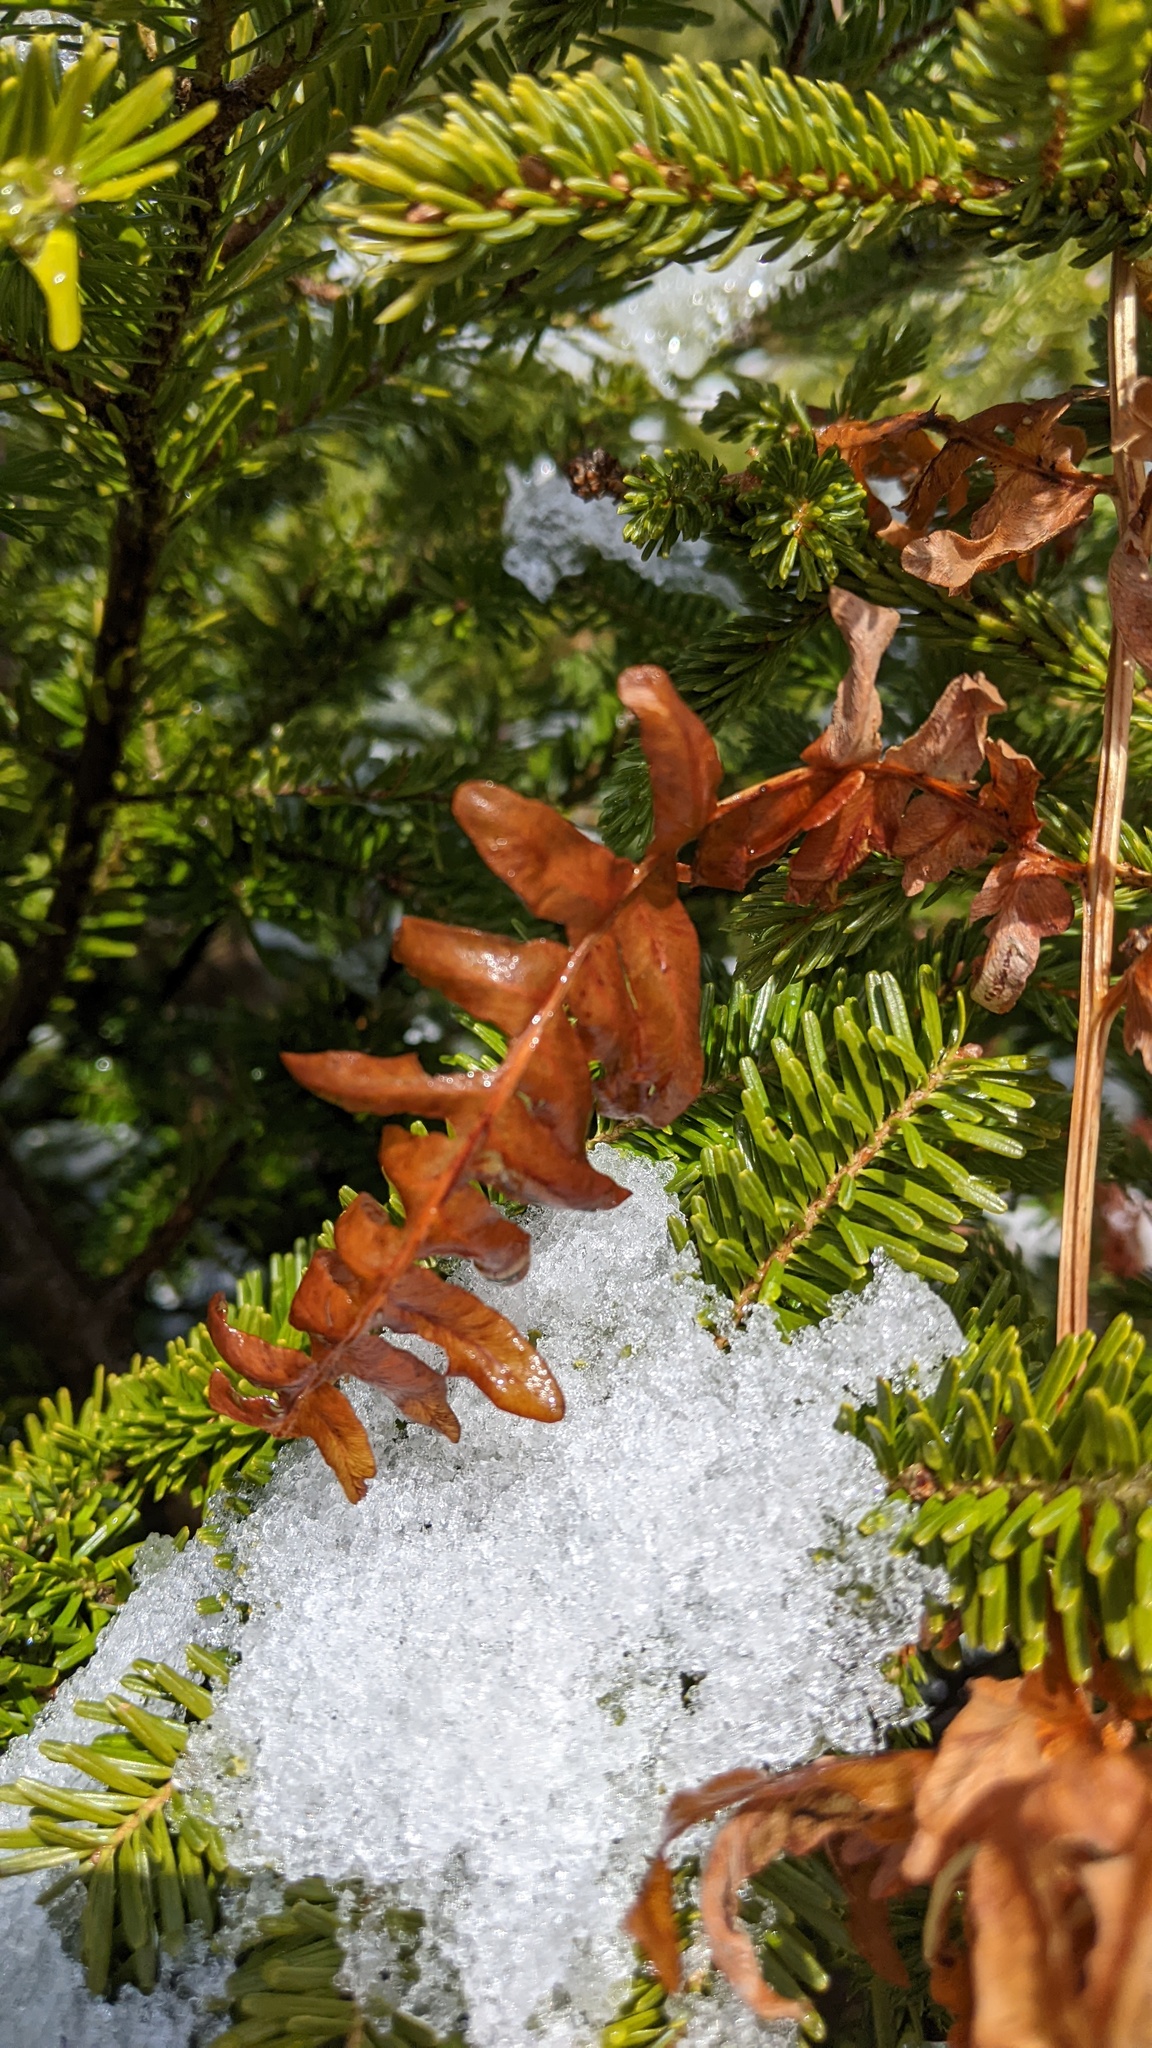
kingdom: Plantae
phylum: Tracheophyta
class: Polypodiopsida
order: Polypodiales
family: Dennstaedtiaceae
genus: Pteridium
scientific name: Pteridium aquilinum
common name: Bracken
